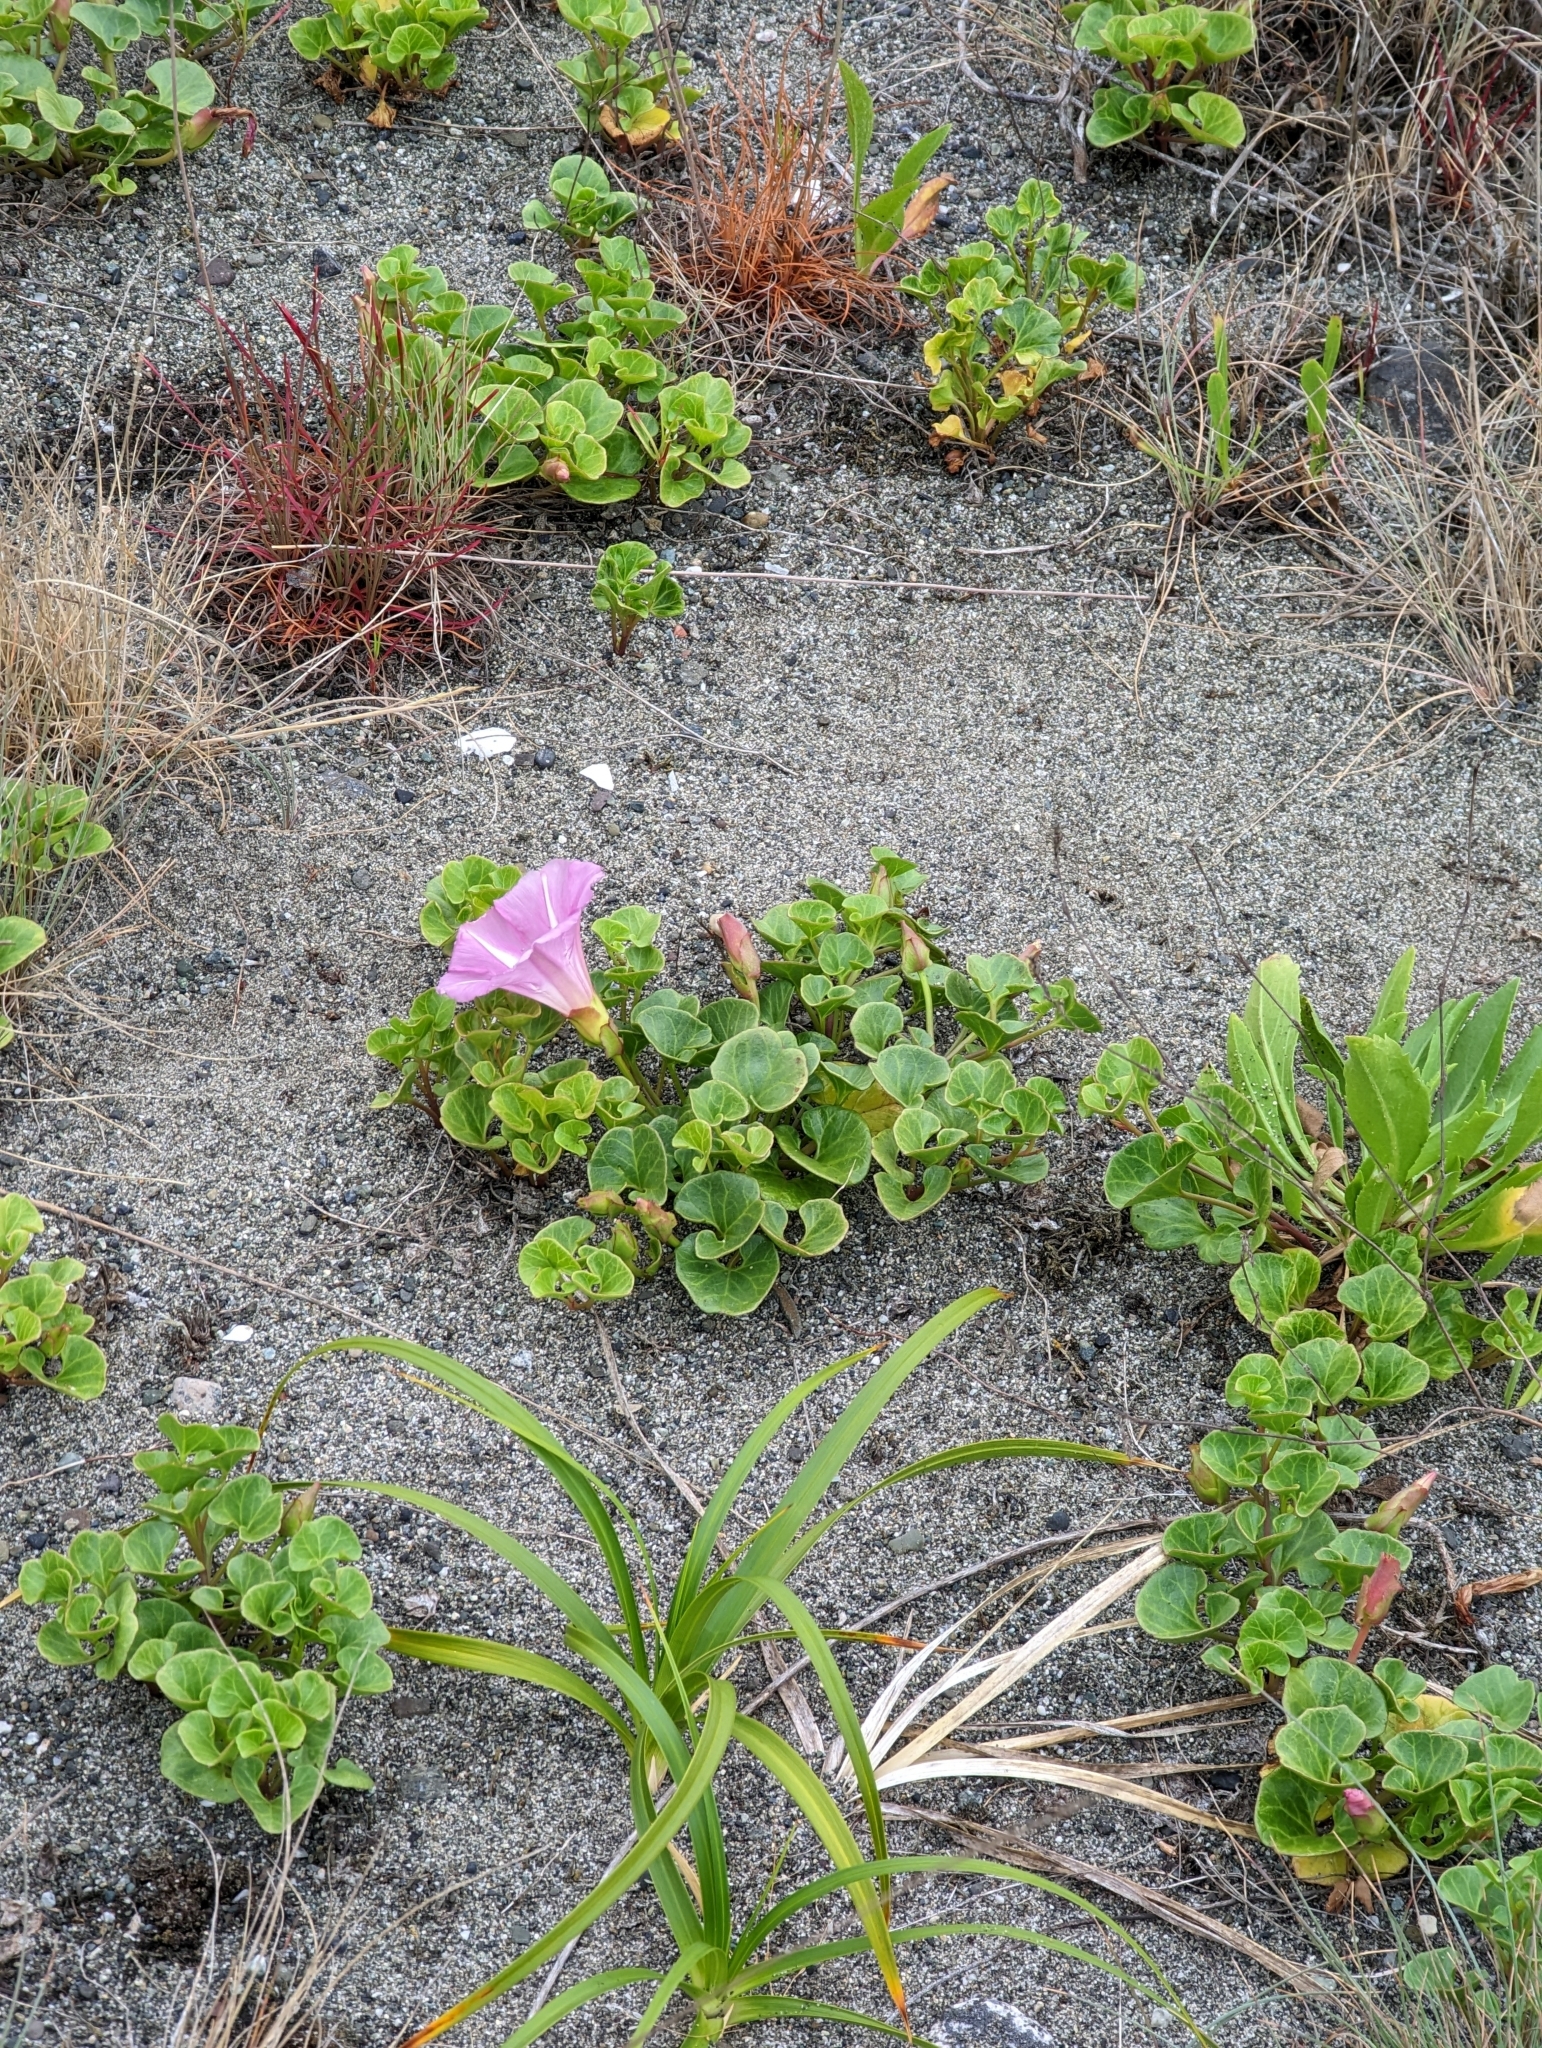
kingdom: Plantae
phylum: Tracheophyta
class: Magnoliopsida
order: Solanales
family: Convolvulaceae
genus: Calystegia
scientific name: Calystegia soldanella
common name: Sea bindweed
